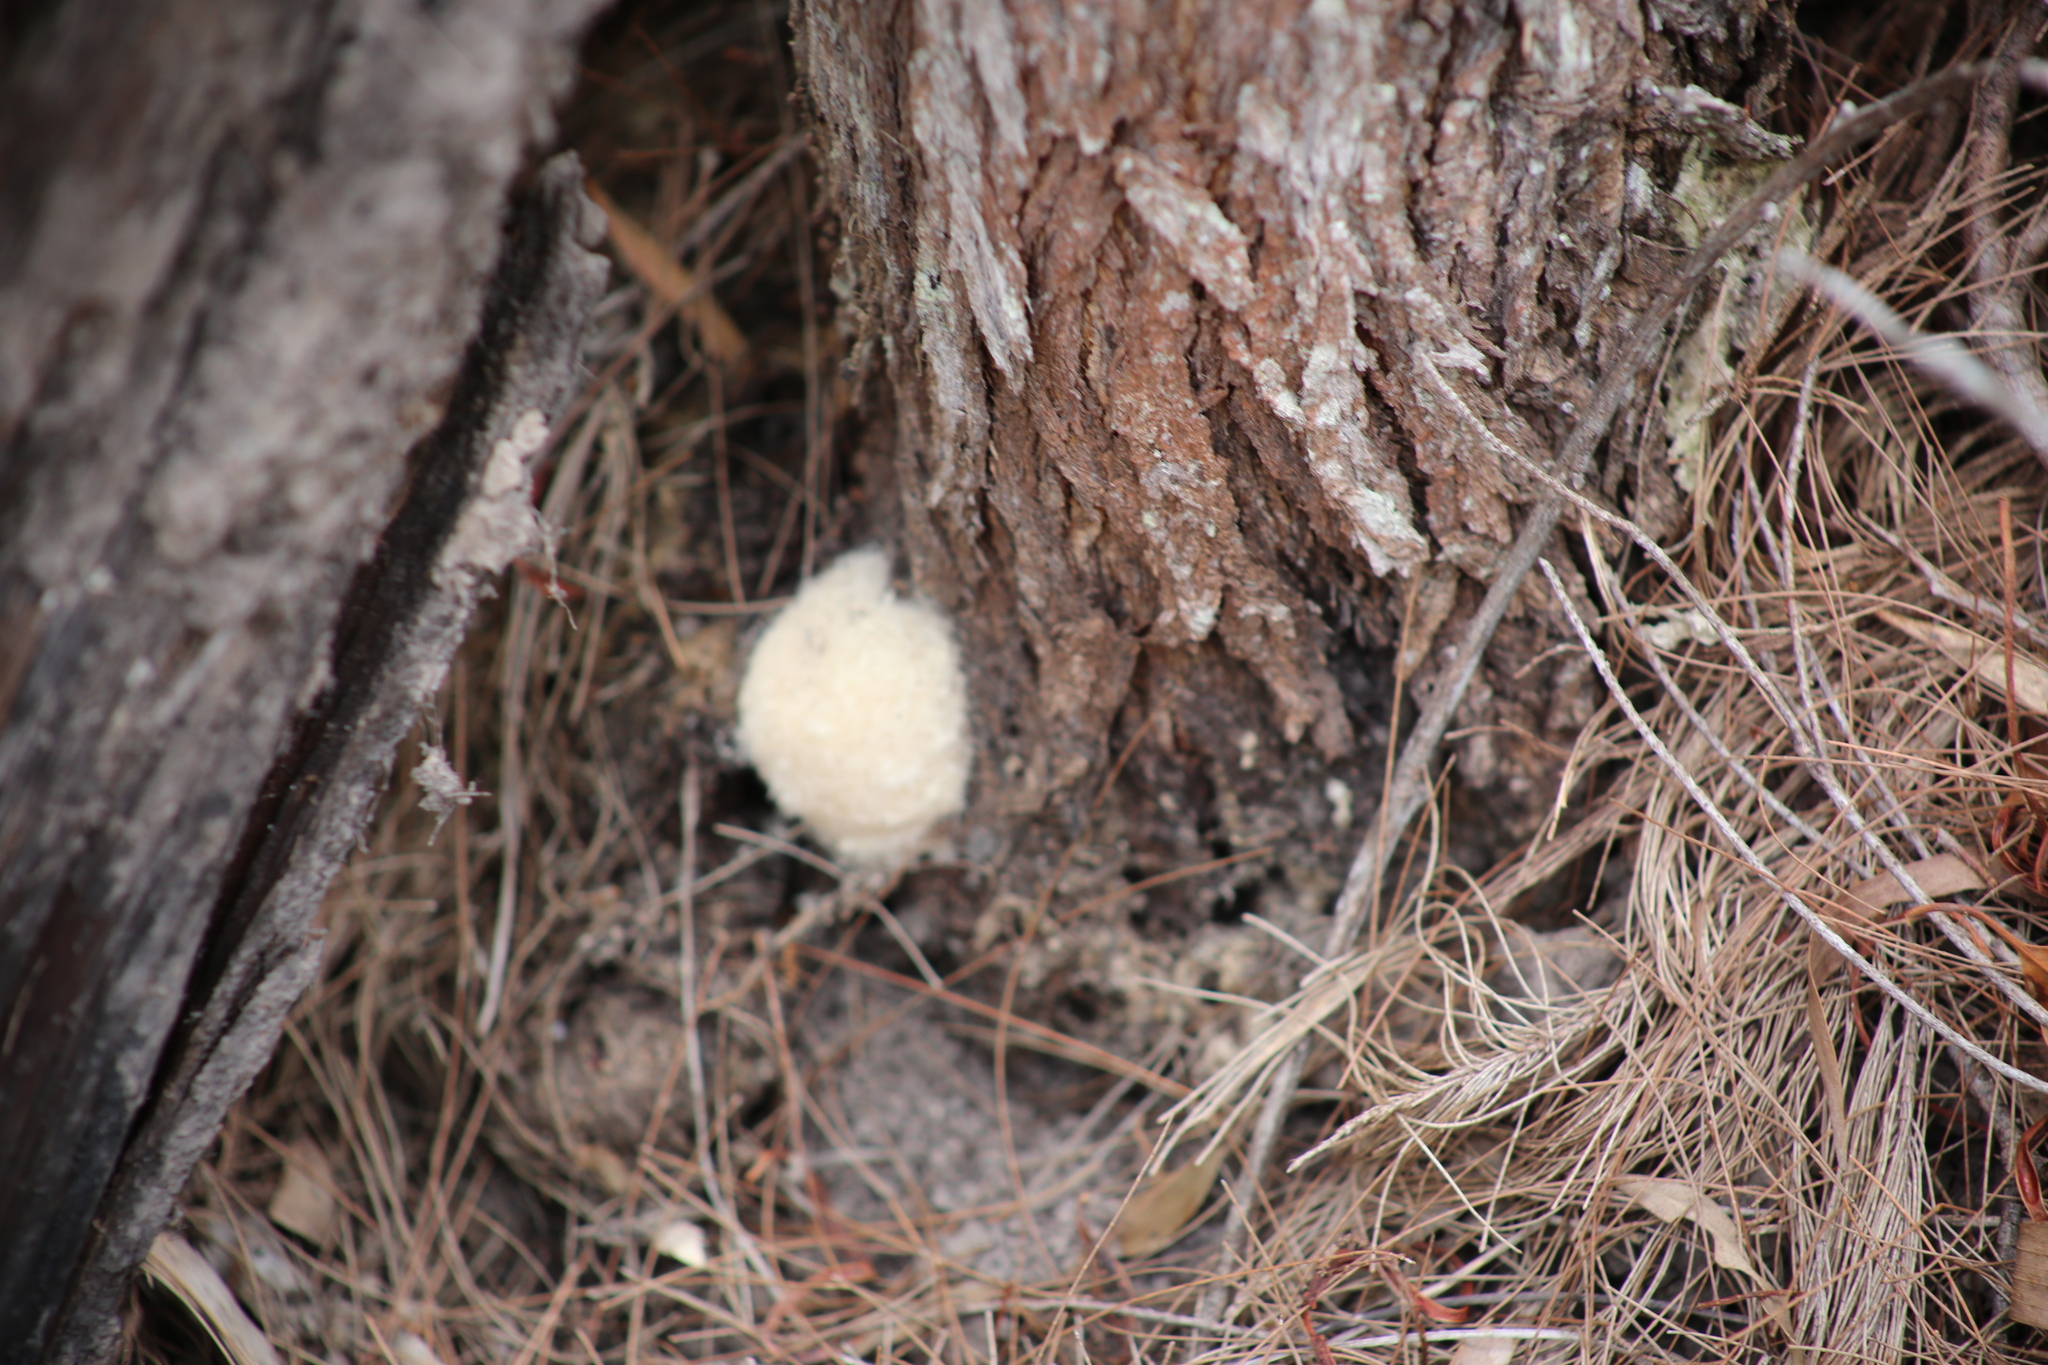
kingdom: Animalia
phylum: Arthropoda
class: Insecta
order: Lepidoptera
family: Notodontidae
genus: Ochrogaster
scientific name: Ochrogaster lunifer
